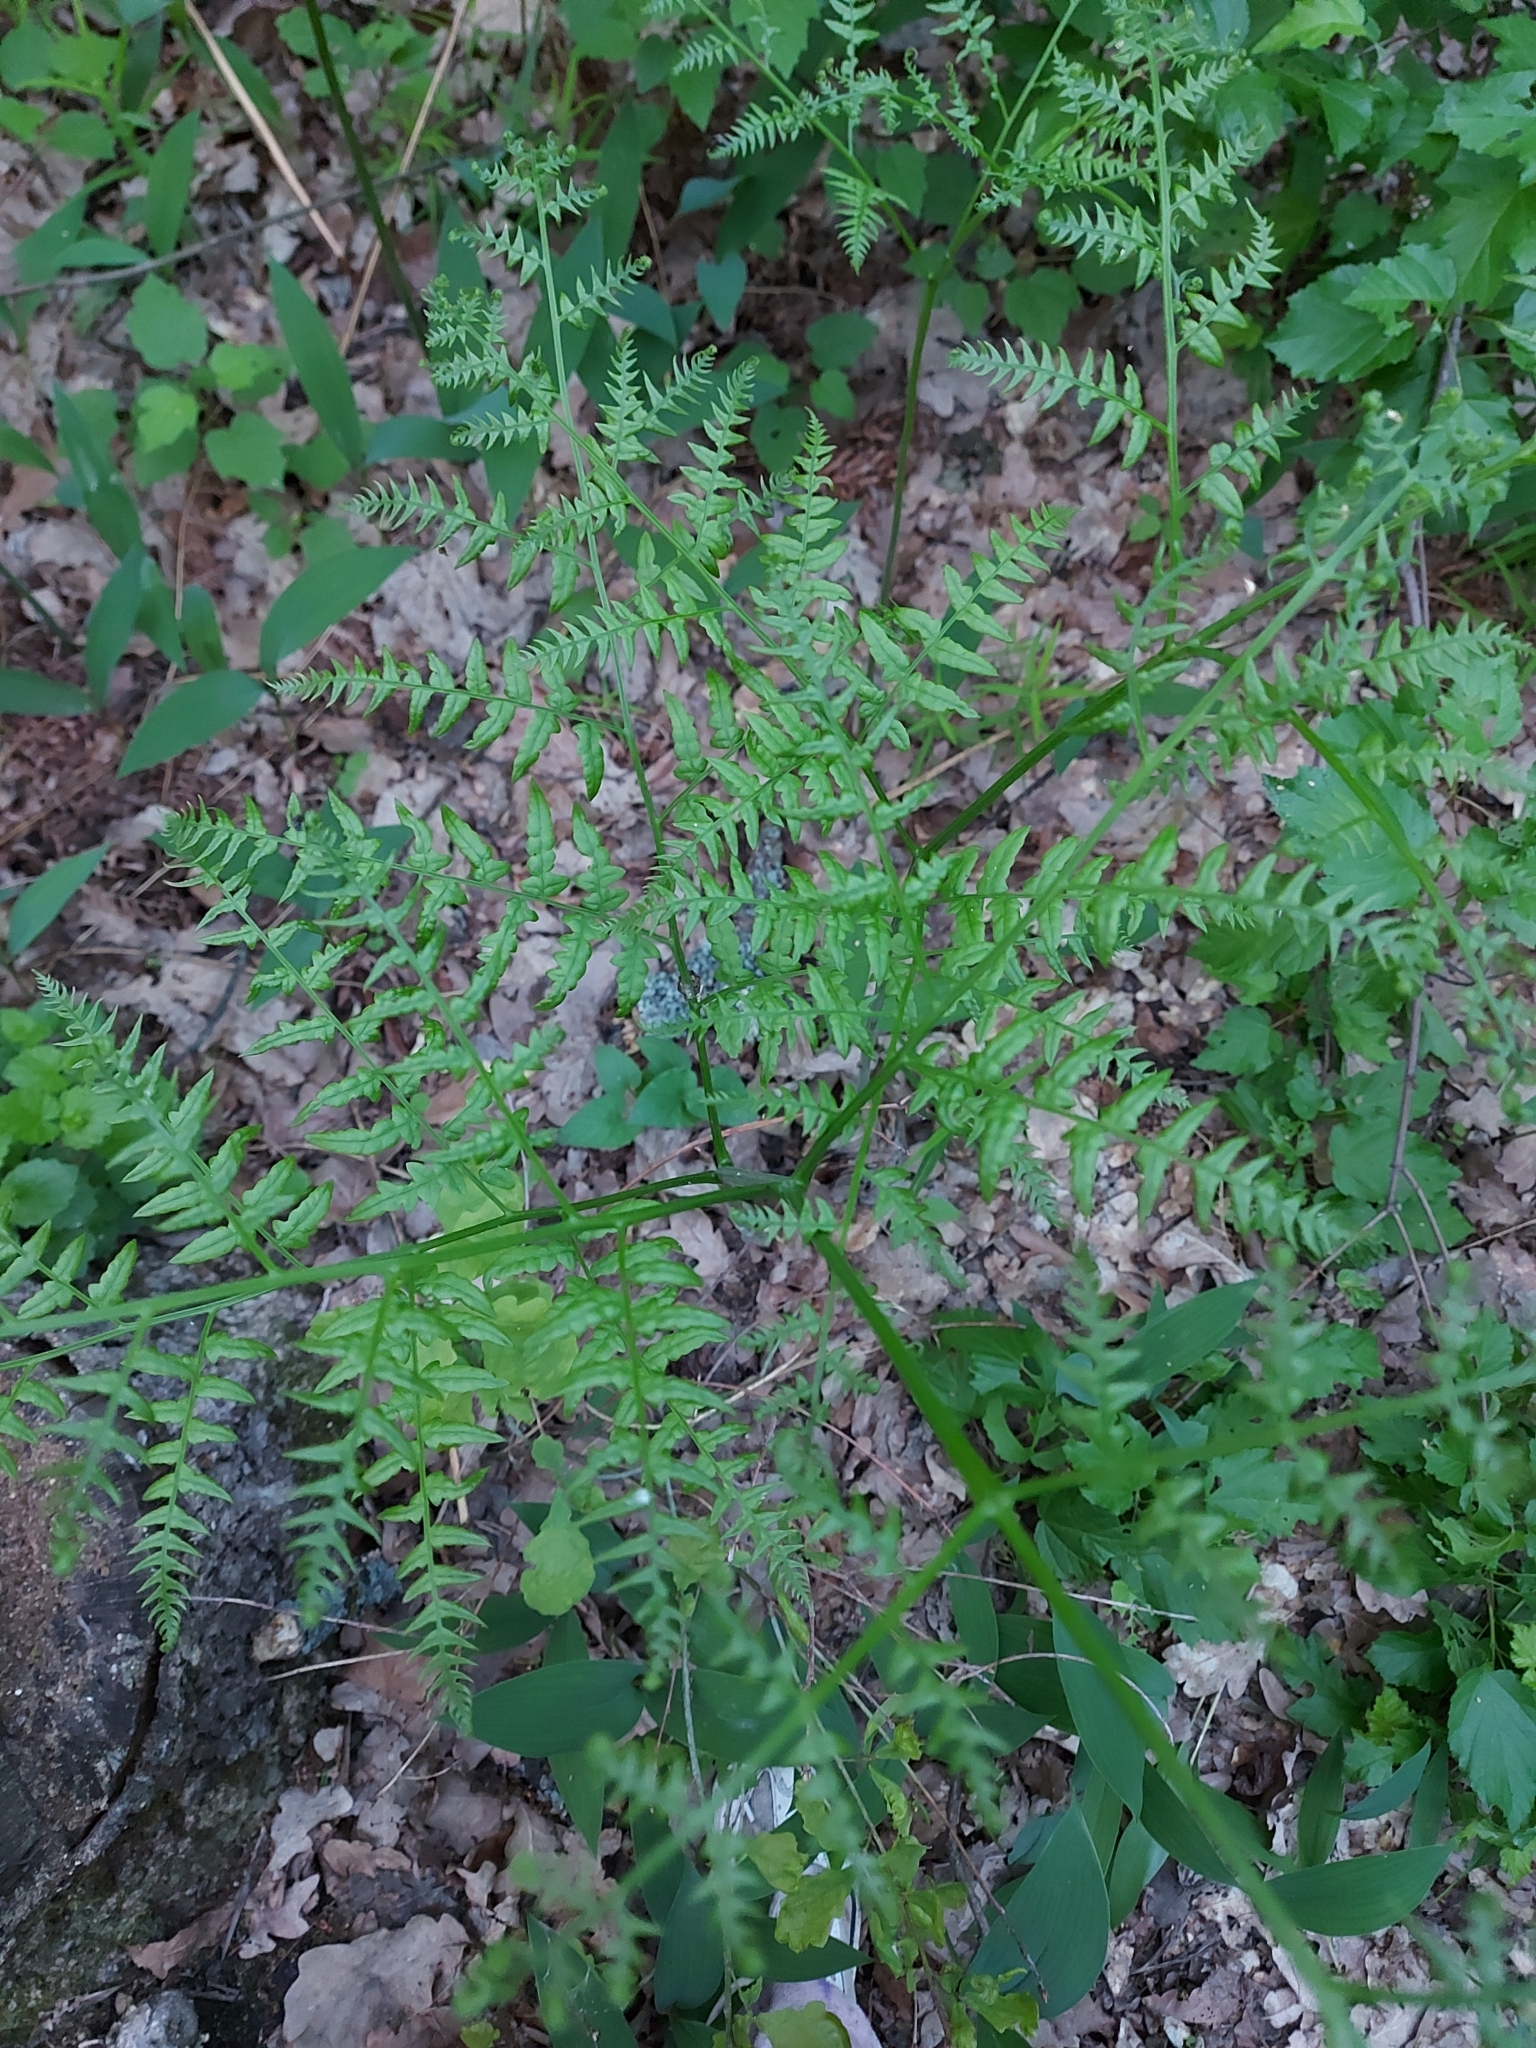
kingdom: Plantae
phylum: Tracheophyta
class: Polypodiopsida
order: Polypodiales
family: Dennstaedtiaceae
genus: Pteridium
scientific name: Pteridium aquilinum
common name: Bracken
